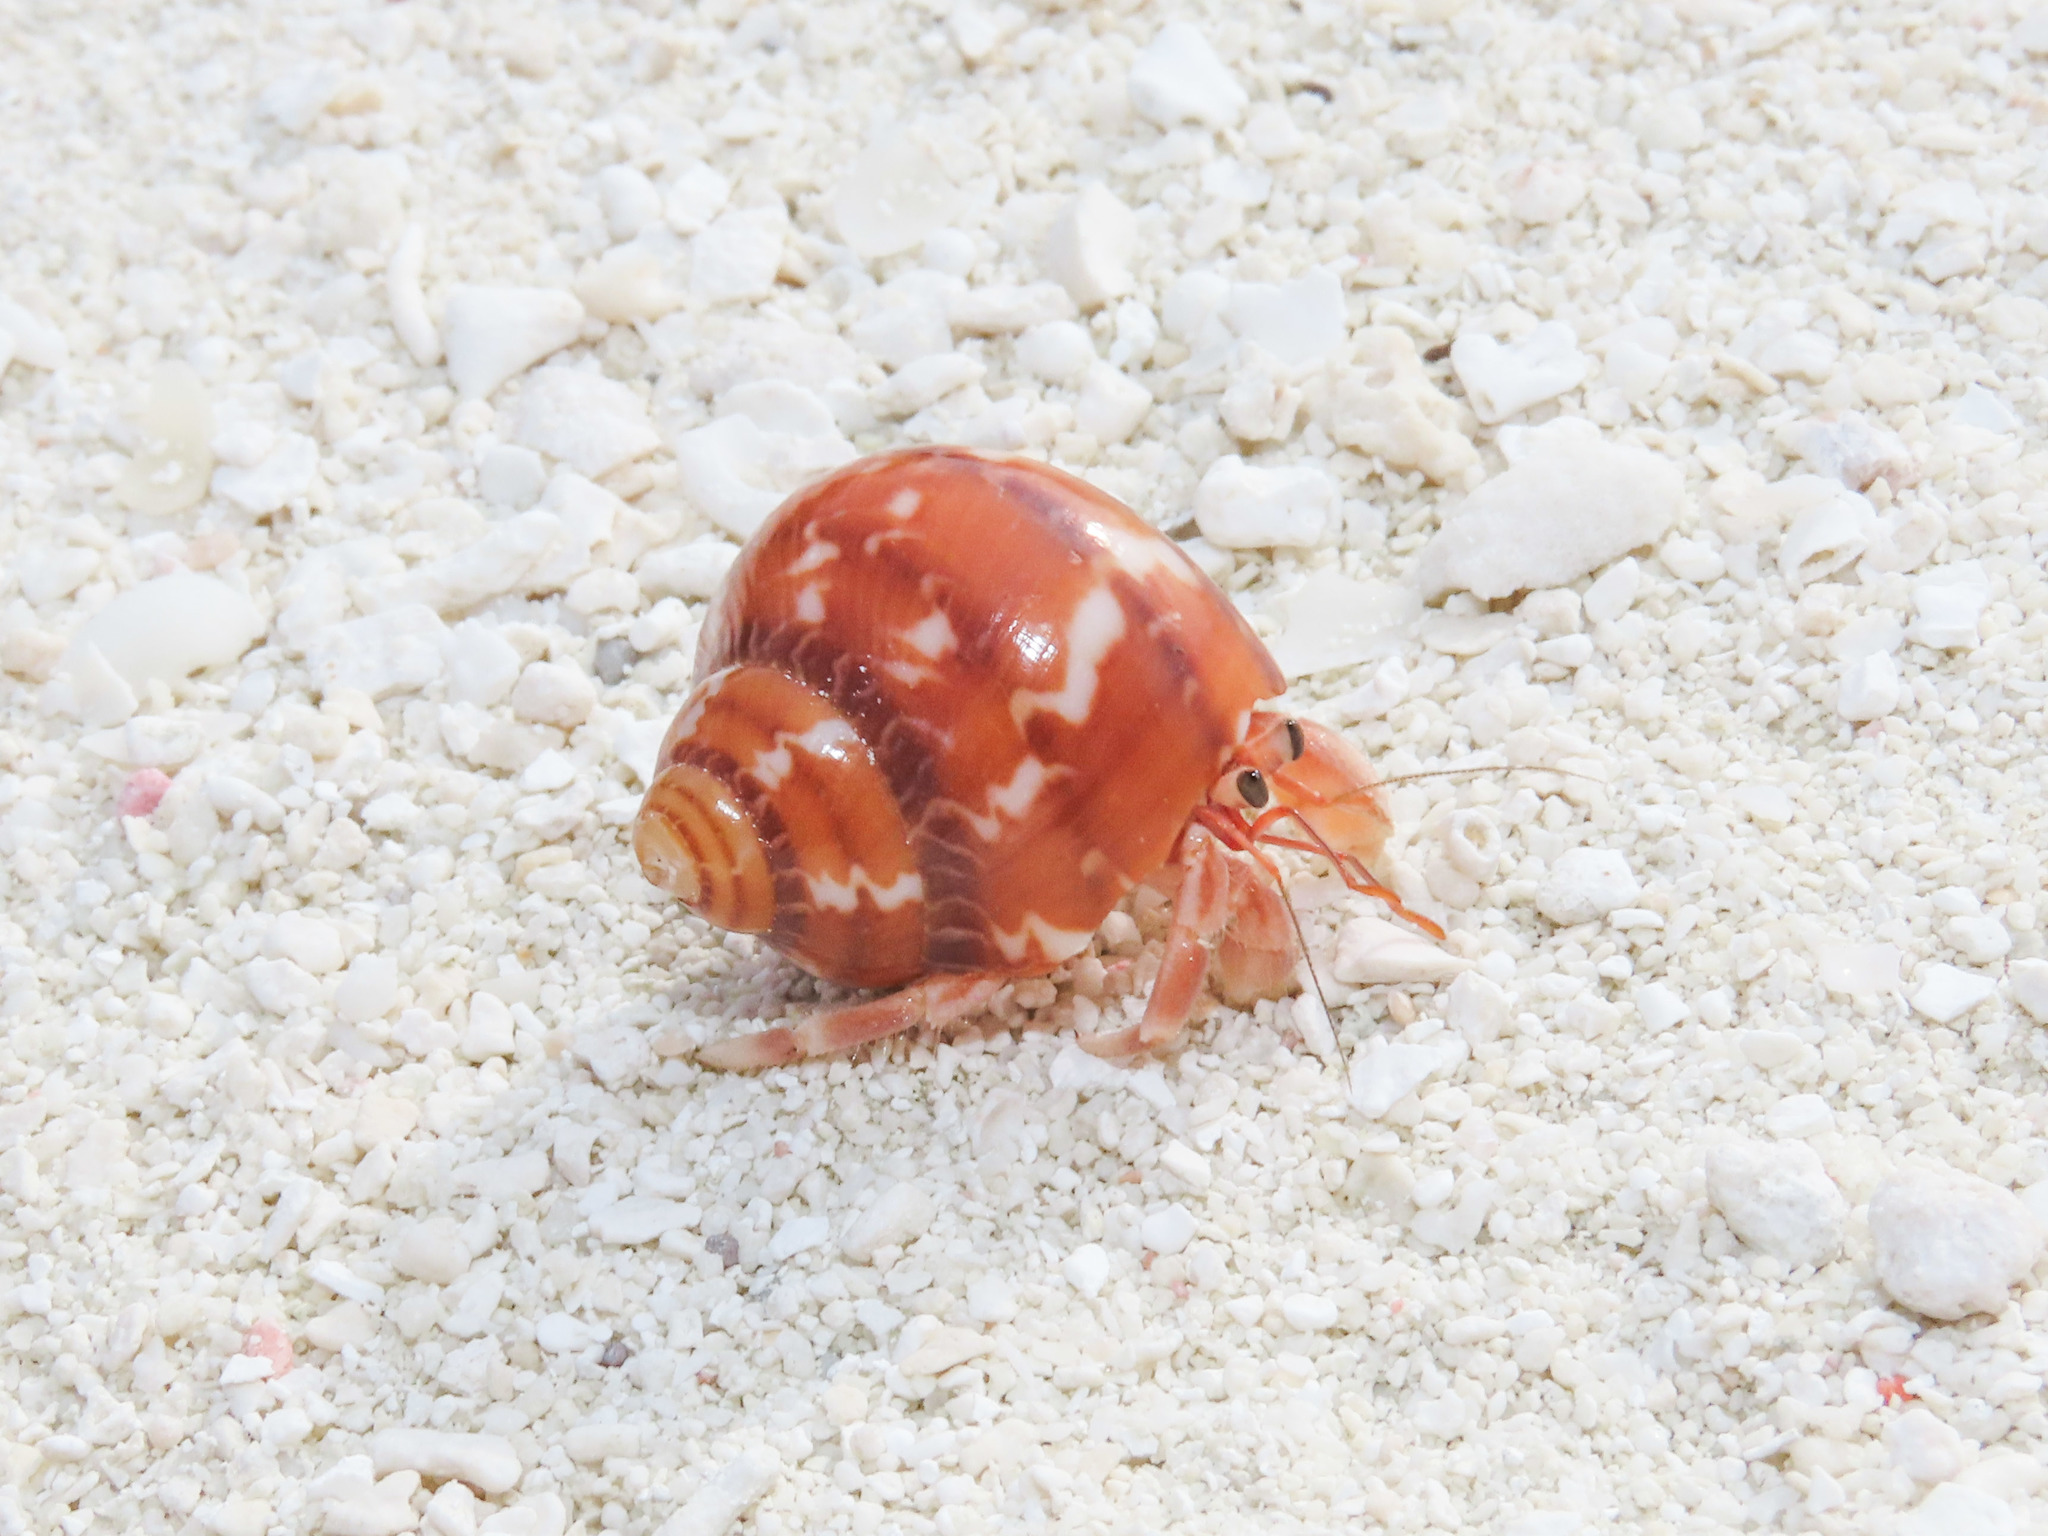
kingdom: Animalia
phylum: Mollusca
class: Gastropoda
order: Trochida
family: Turbinidae
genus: Turbo
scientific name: Turbo petholatus
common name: Cat's-eye shell
